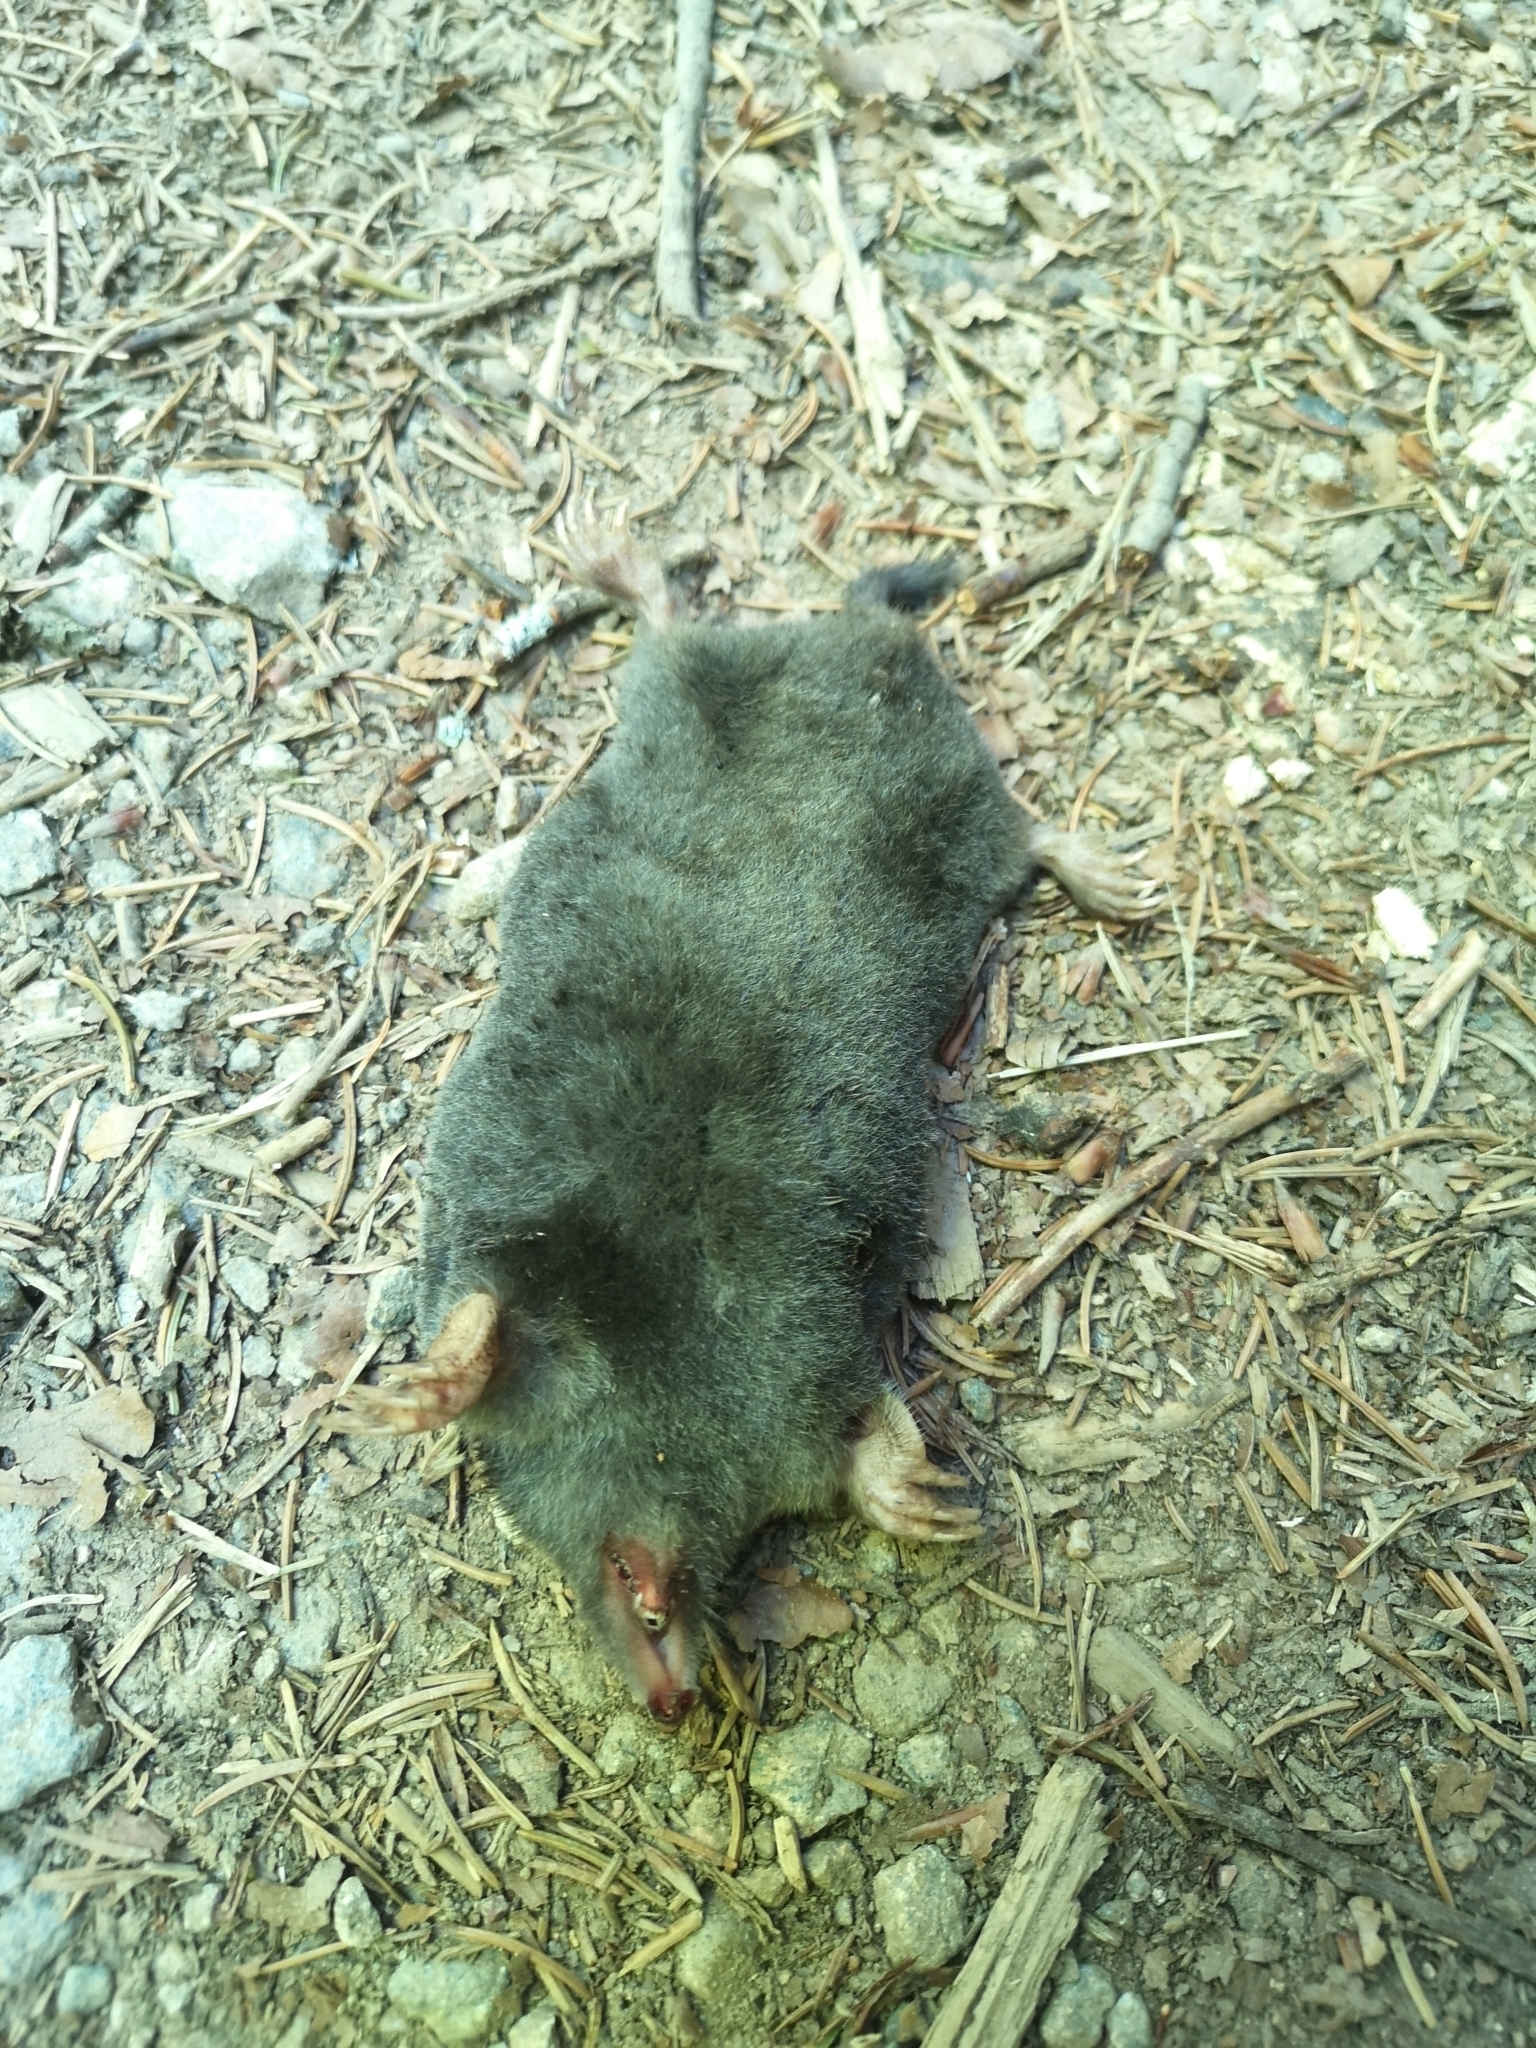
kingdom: Animalia
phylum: Chordata
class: Mammalia
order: Soricomorpha
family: Talpidae
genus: Talpa
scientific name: Talpa europaea
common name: European mole
